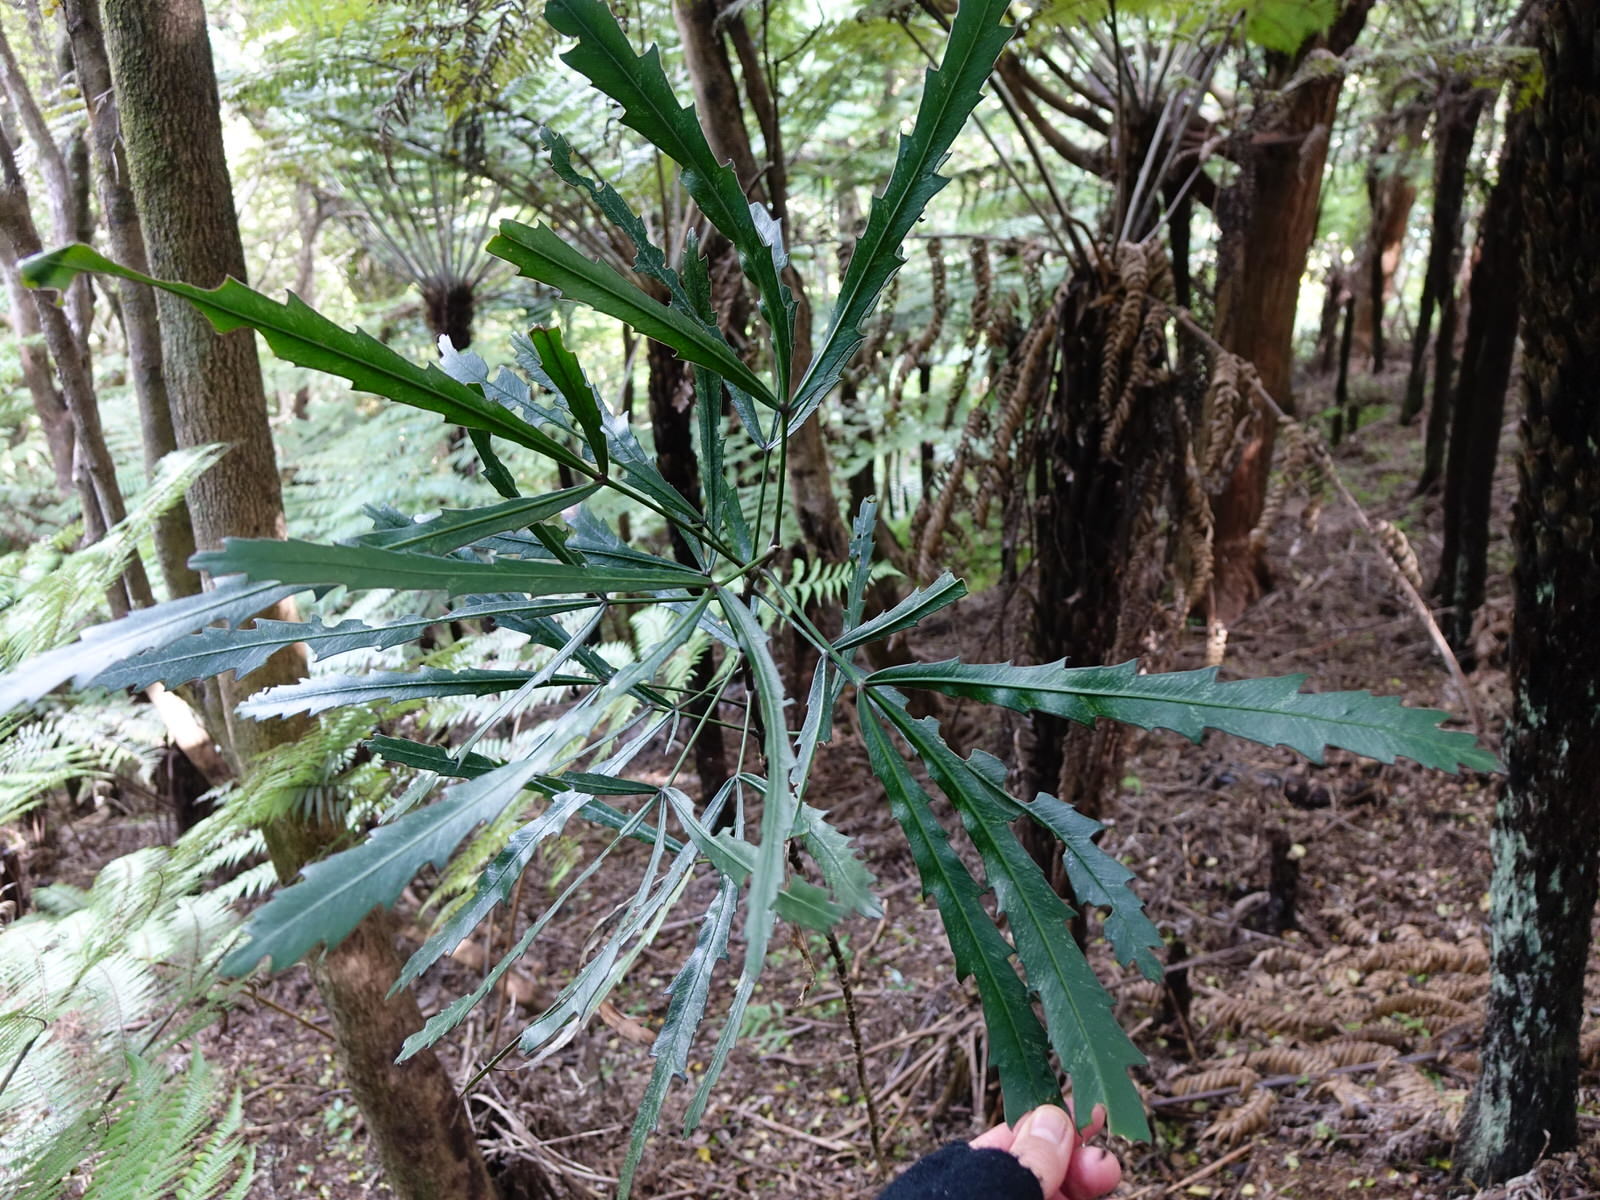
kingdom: Plantae
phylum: Tracheophyta
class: Magnoliopsida
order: Apiales
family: Araliaceae
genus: Pseudopanax
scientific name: Pseudopanax
